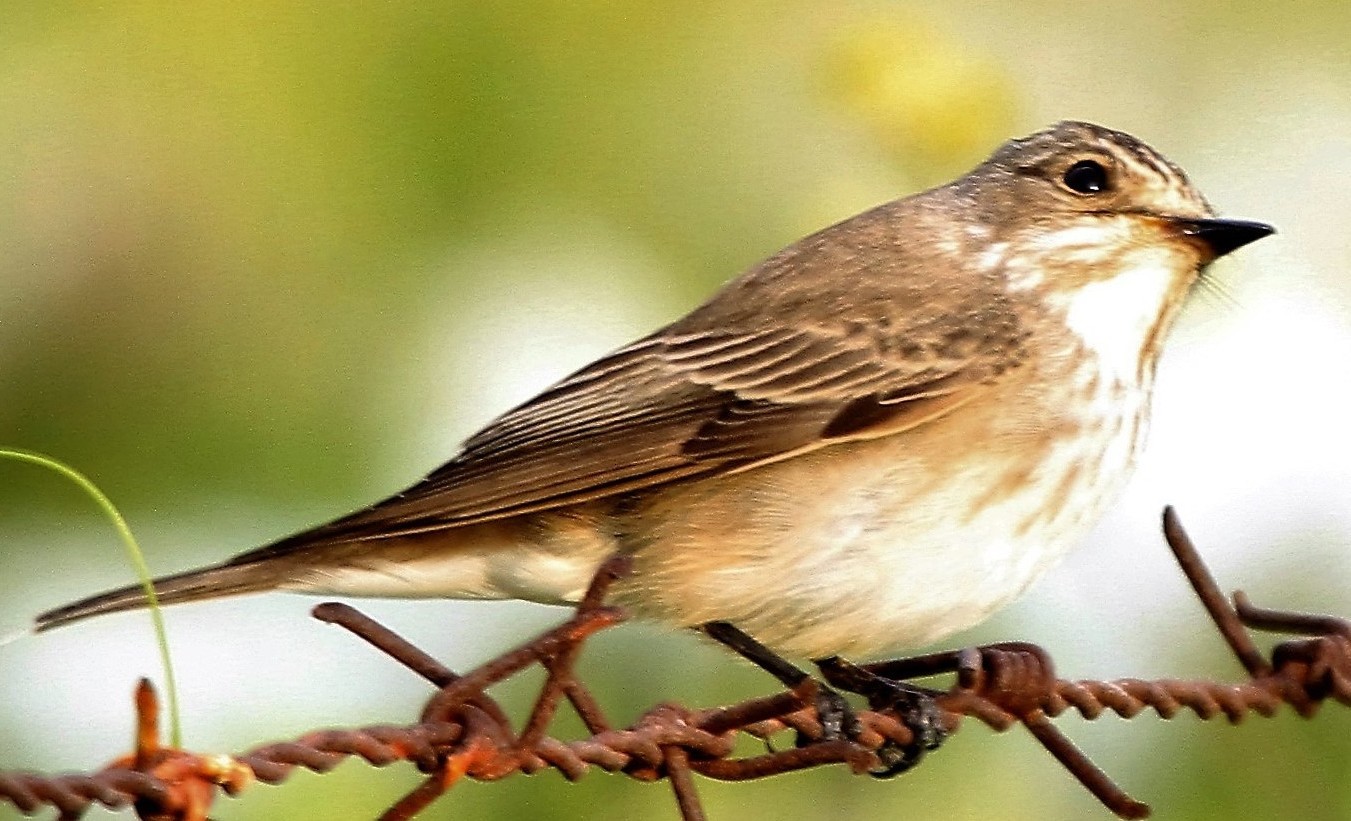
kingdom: Animalia
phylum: Chordata
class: Aves
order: Passeriformes
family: Muscicapidae
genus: Muscicapa
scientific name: Muscicapa striata
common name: Spotted flycatcher
